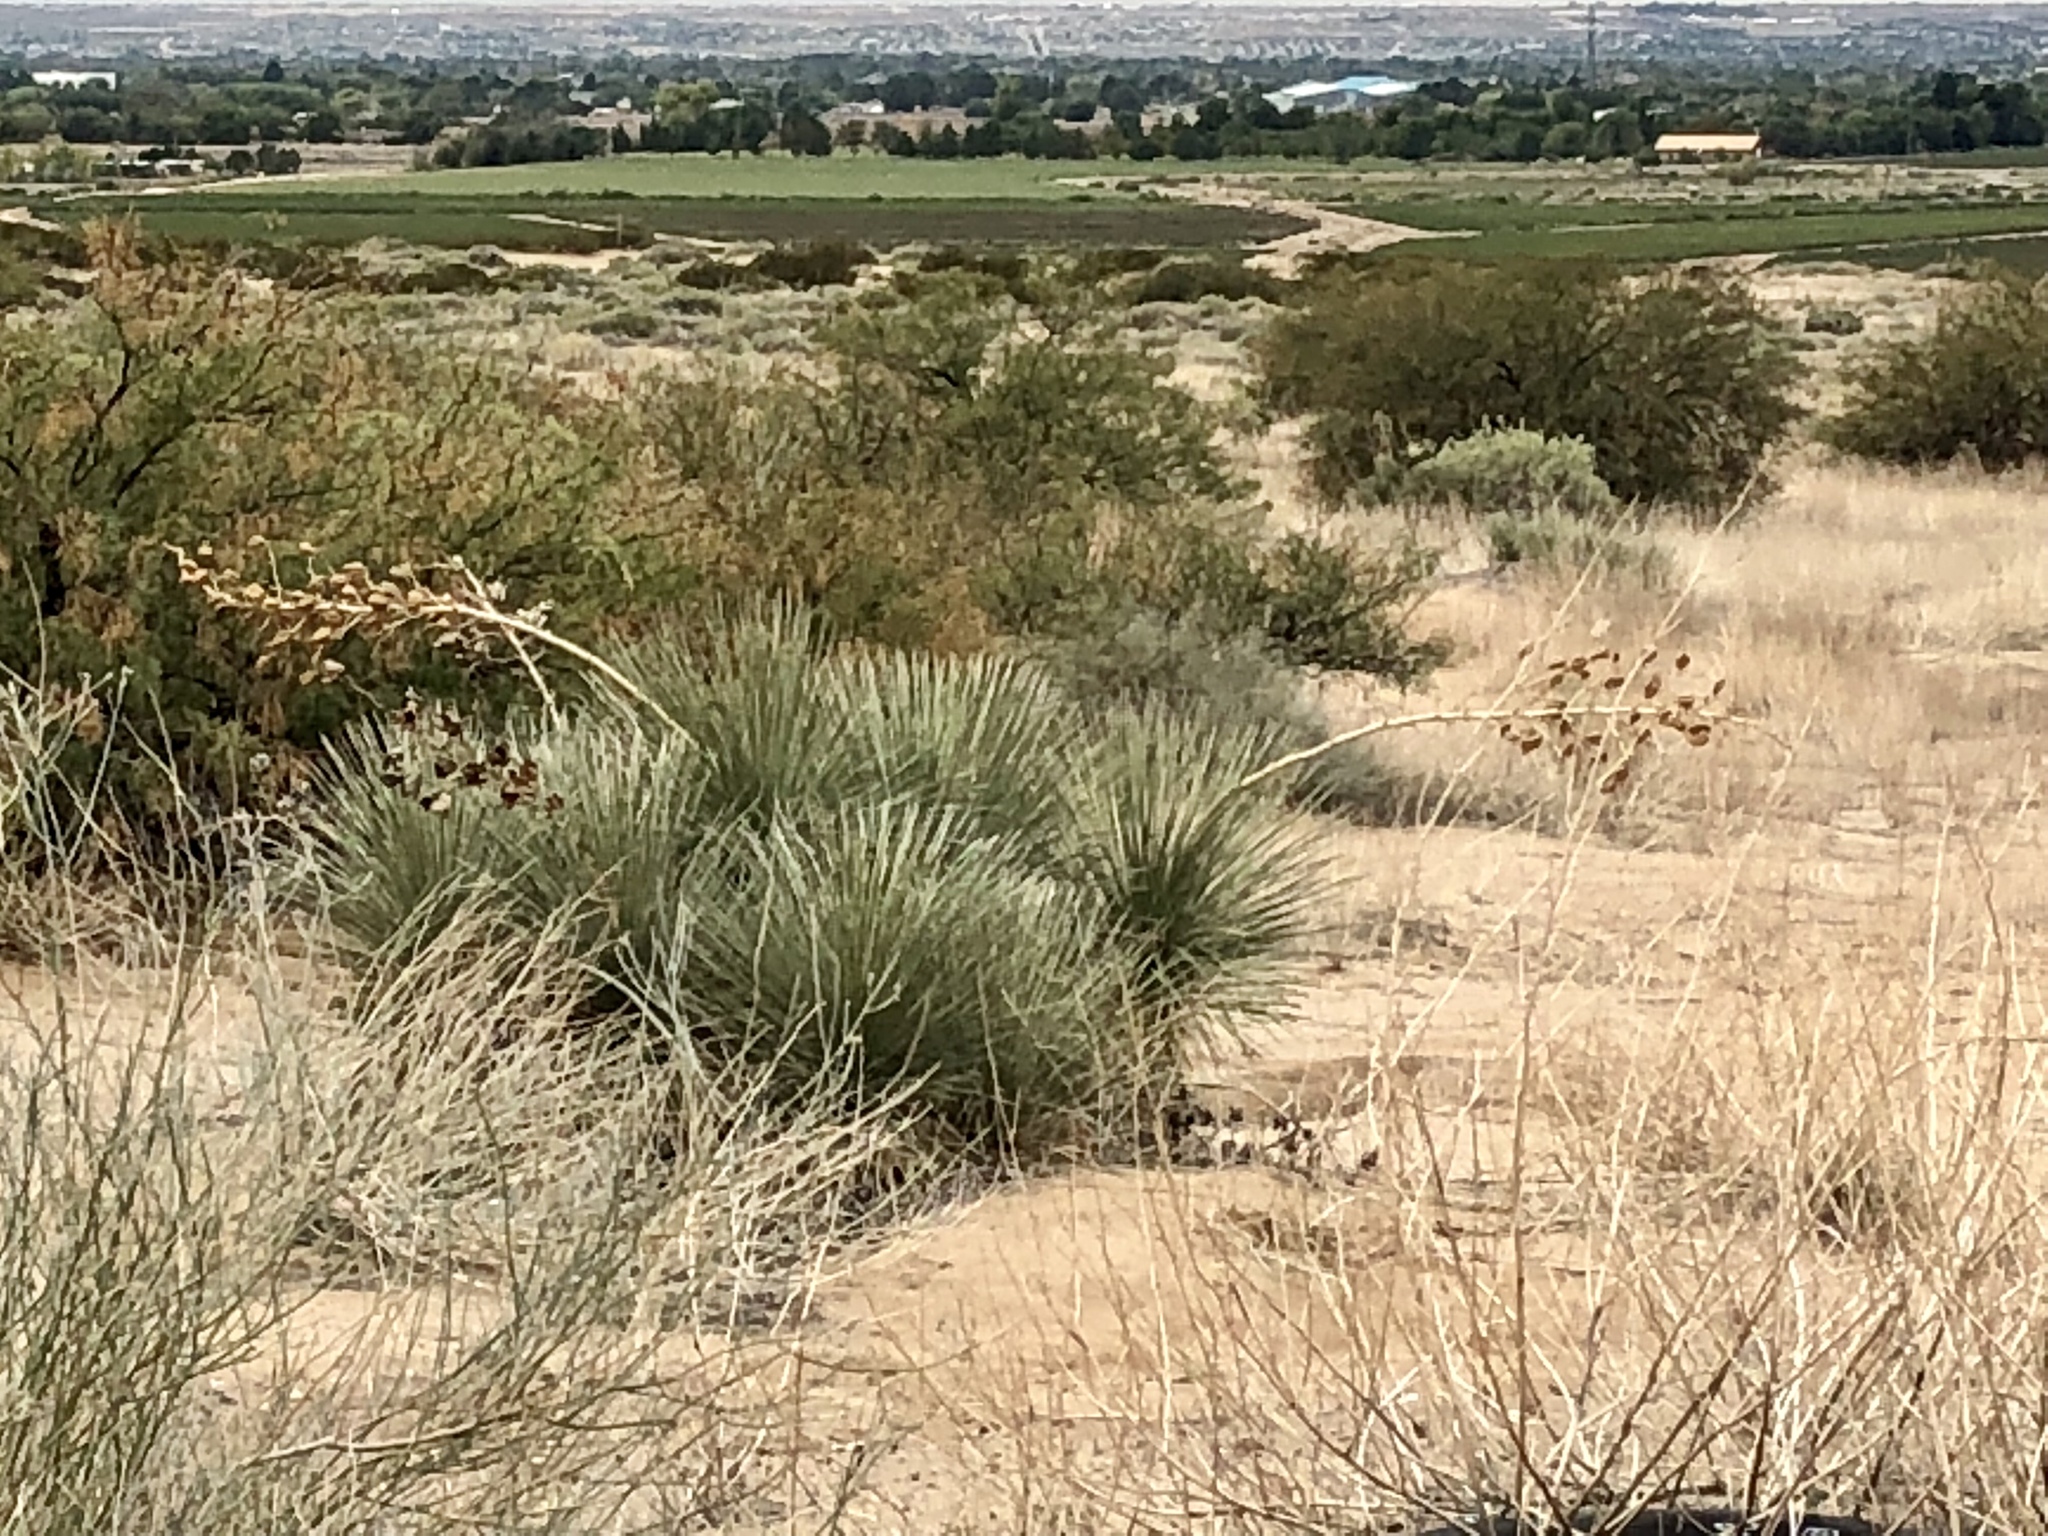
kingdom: Plantae
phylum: Tracheophyta
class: Liliopsida
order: Asparagales
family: Asparagaceae
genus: Yucca
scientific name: Yucca elata
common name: Palmella
